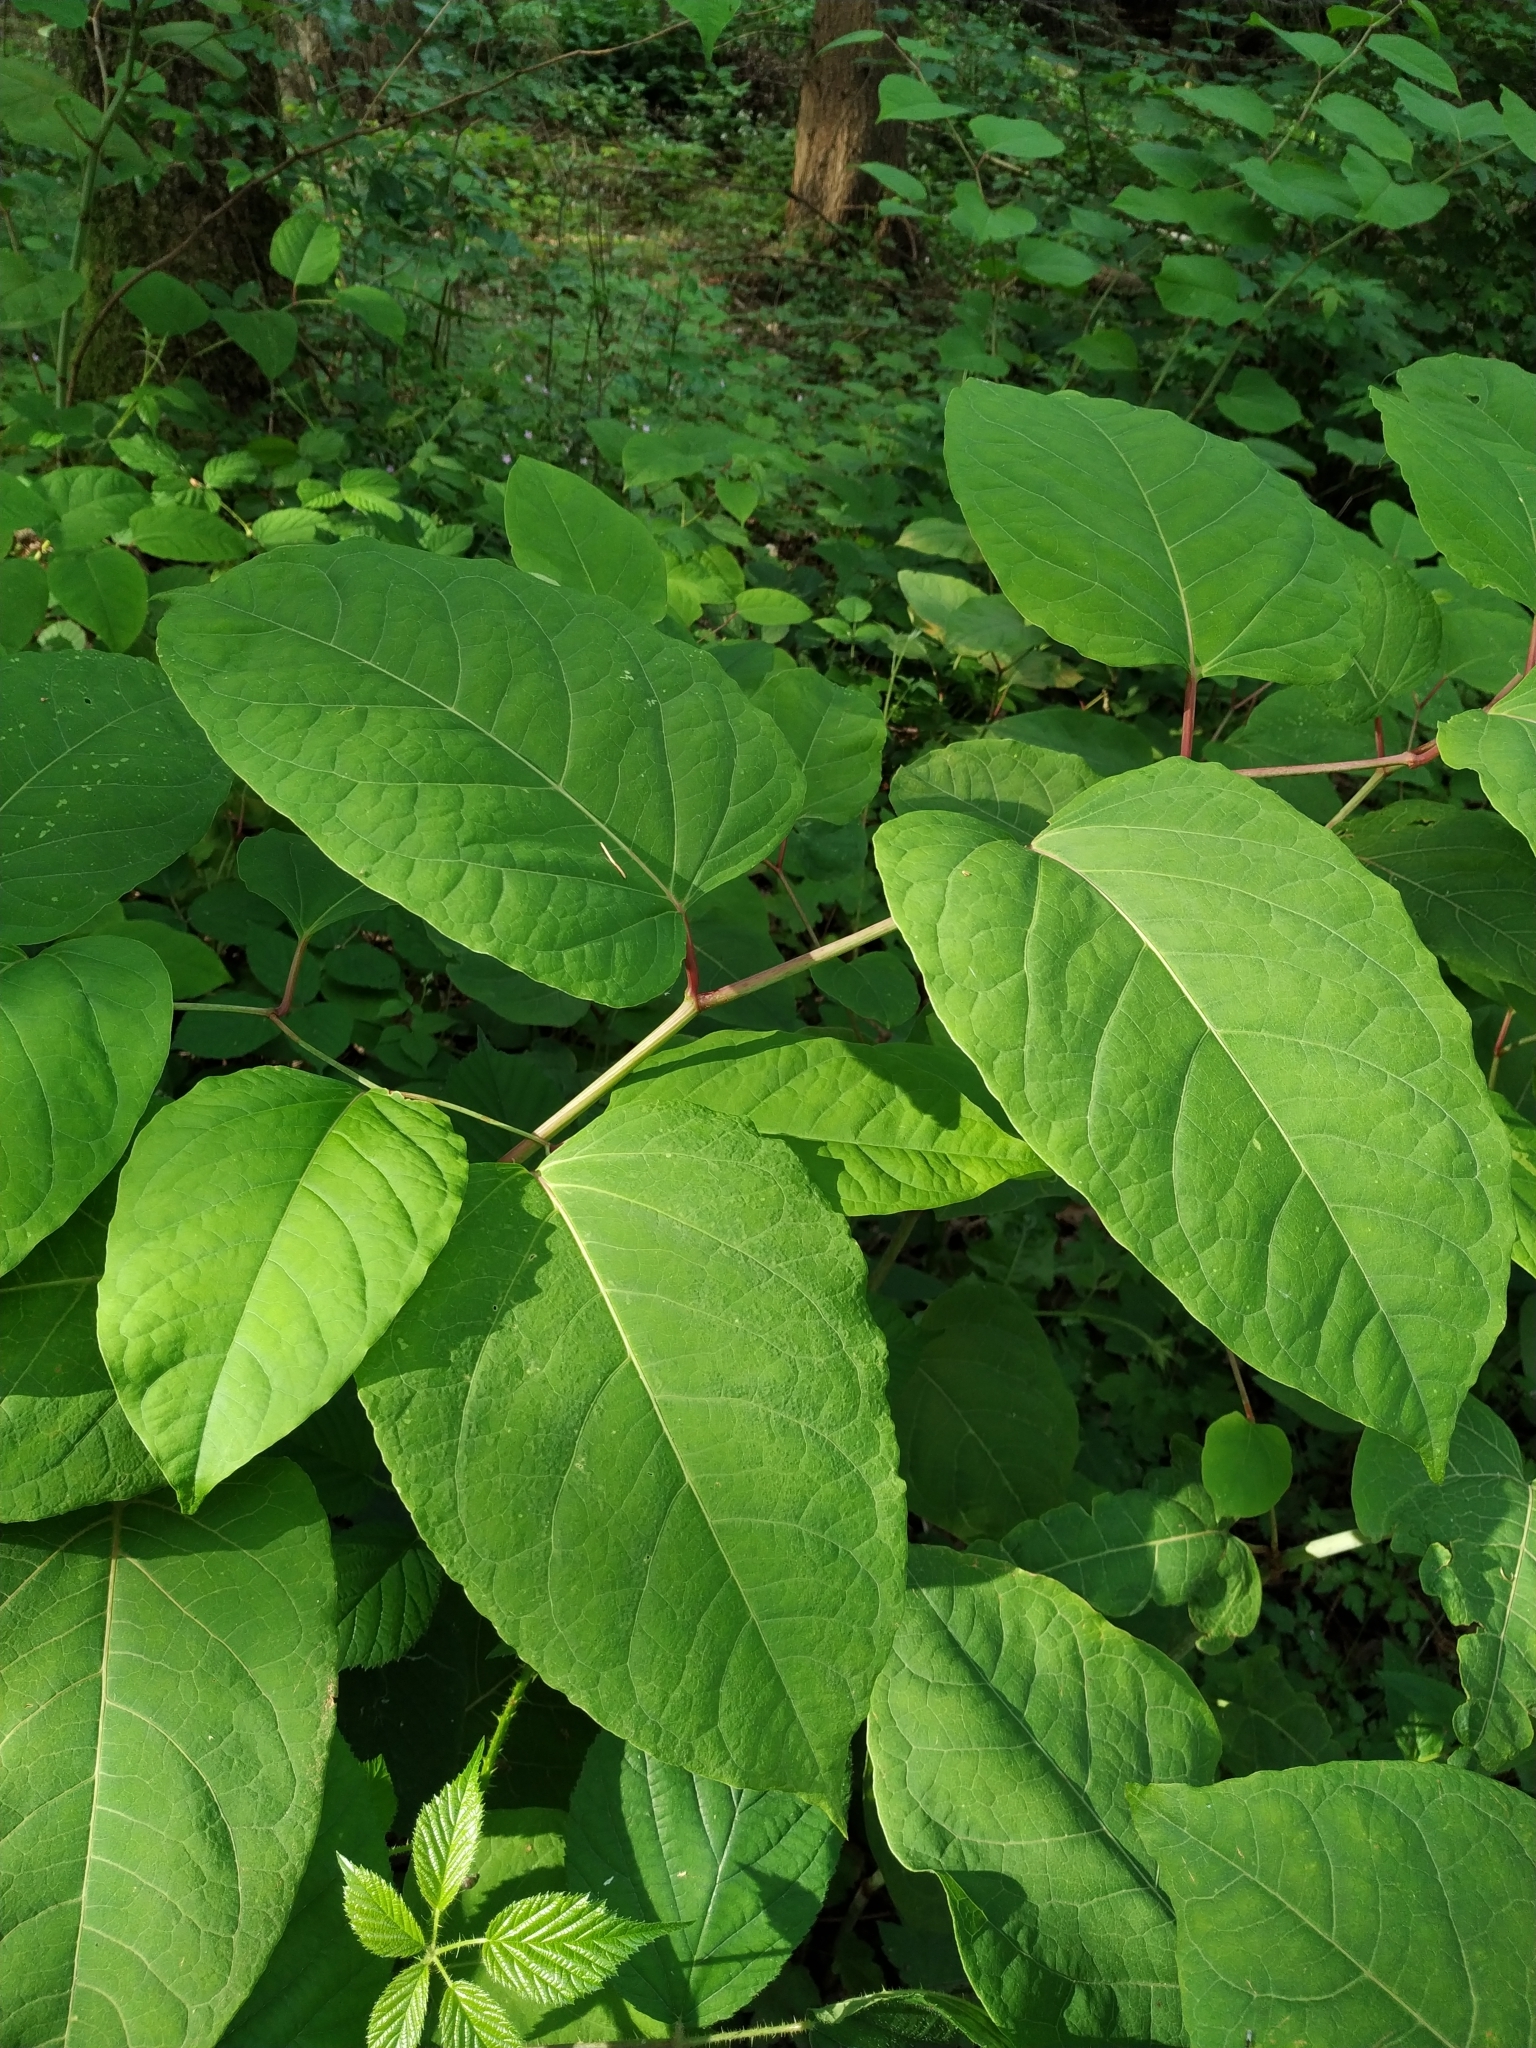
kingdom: Plantae
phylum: Tracheophyta
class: Magnoliopsida
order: Caryophyllales
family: Polygonaceae
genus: Reynoutria
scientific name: Reynoutria bohemica
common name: Bohemian knotweed
